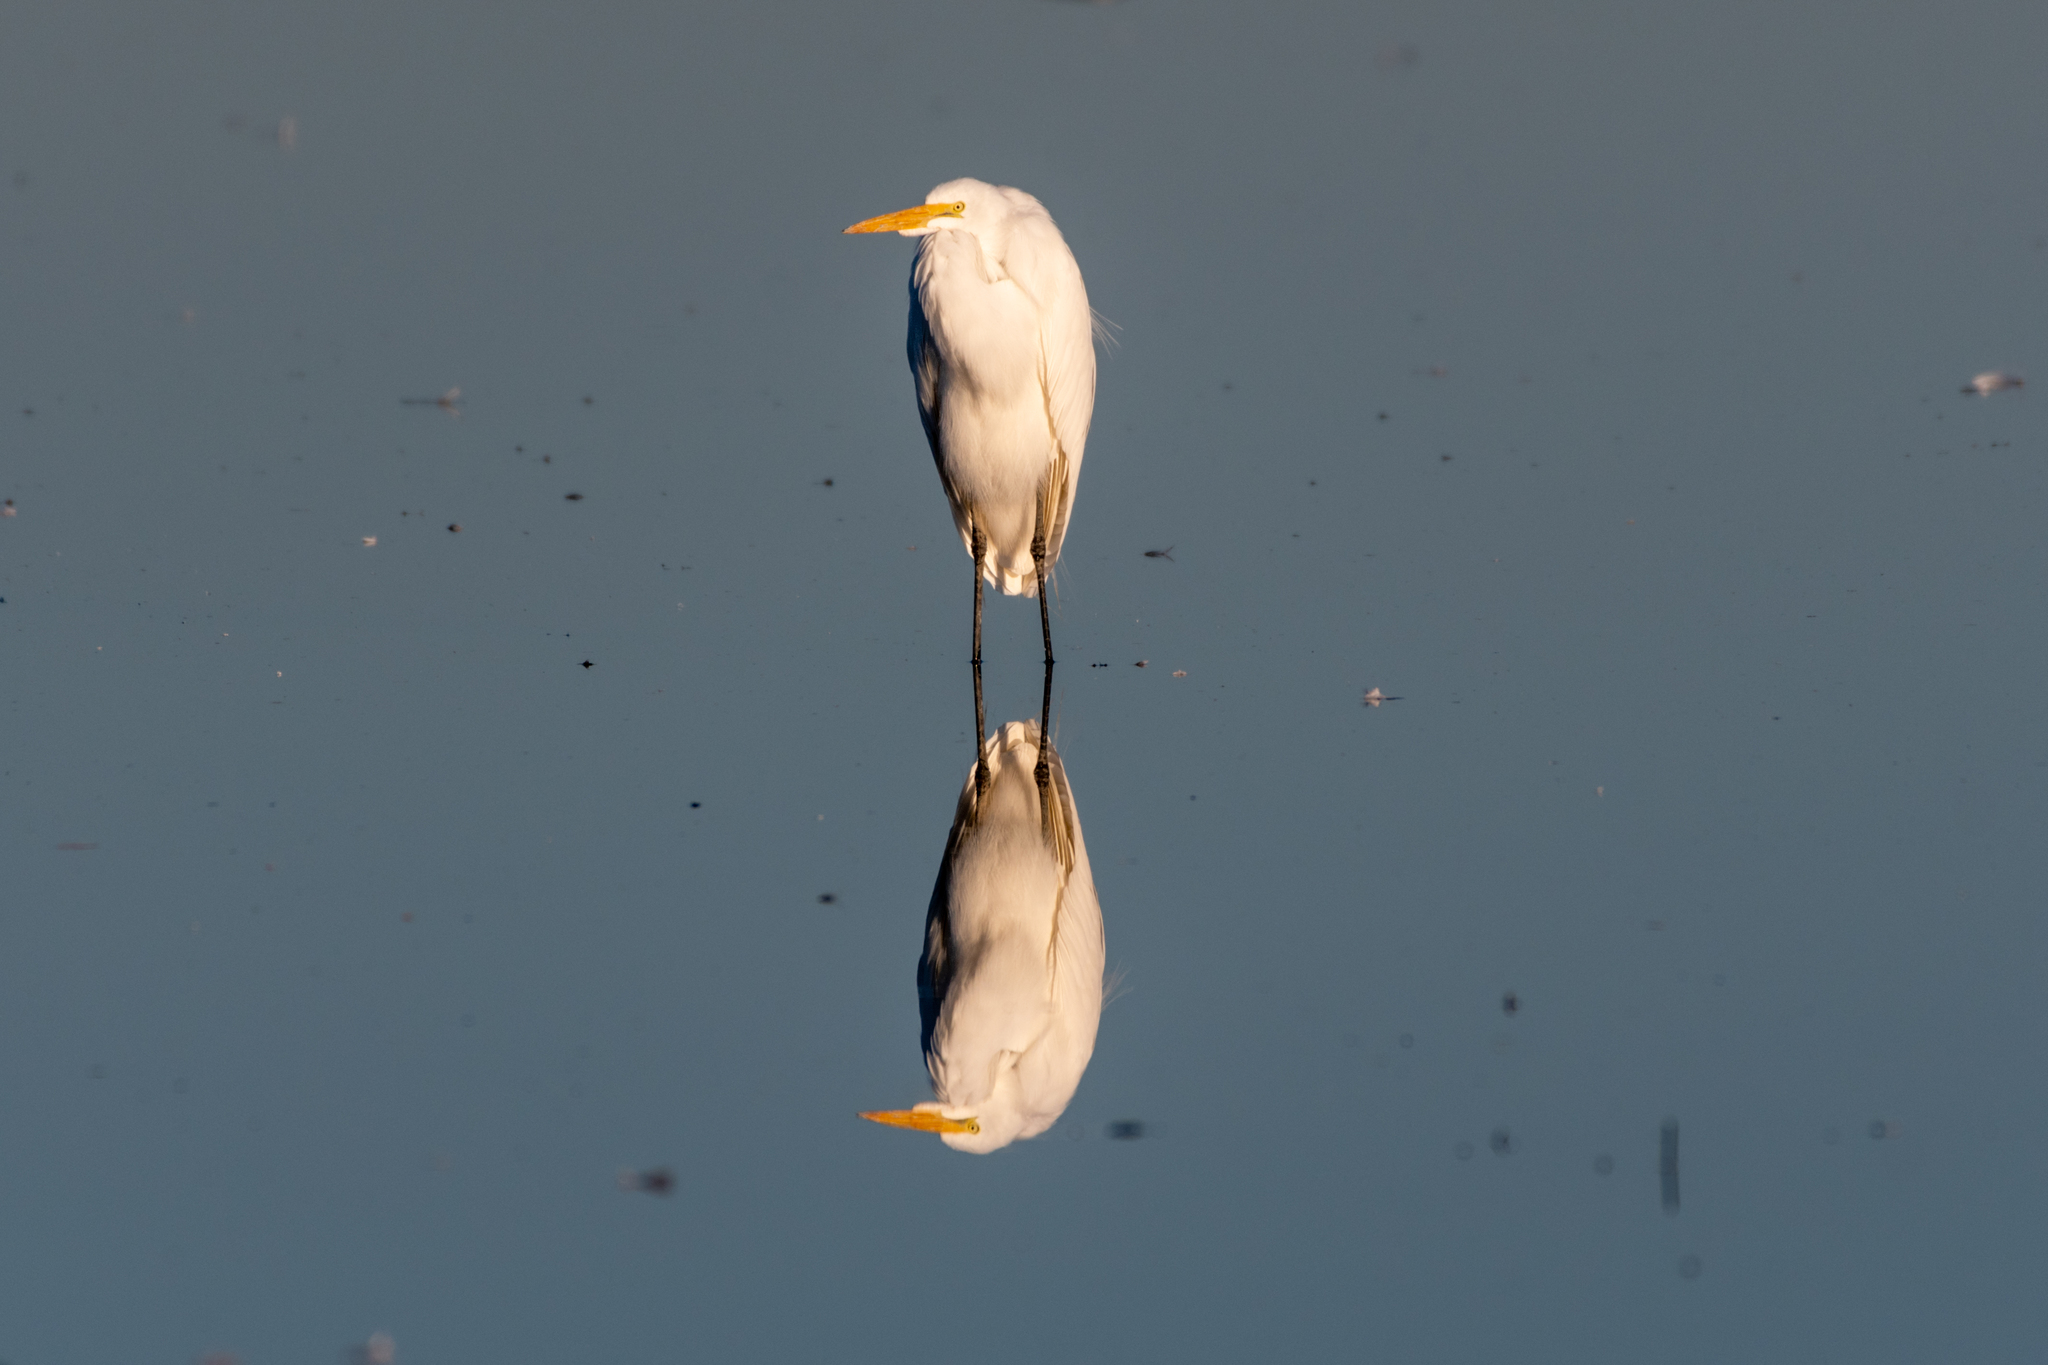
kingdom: Animalia
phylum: Chordata
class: Aves
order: Pelecaniformes
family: Ardeidae
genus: Ardea
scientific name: Ardea alba
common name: Great egret
